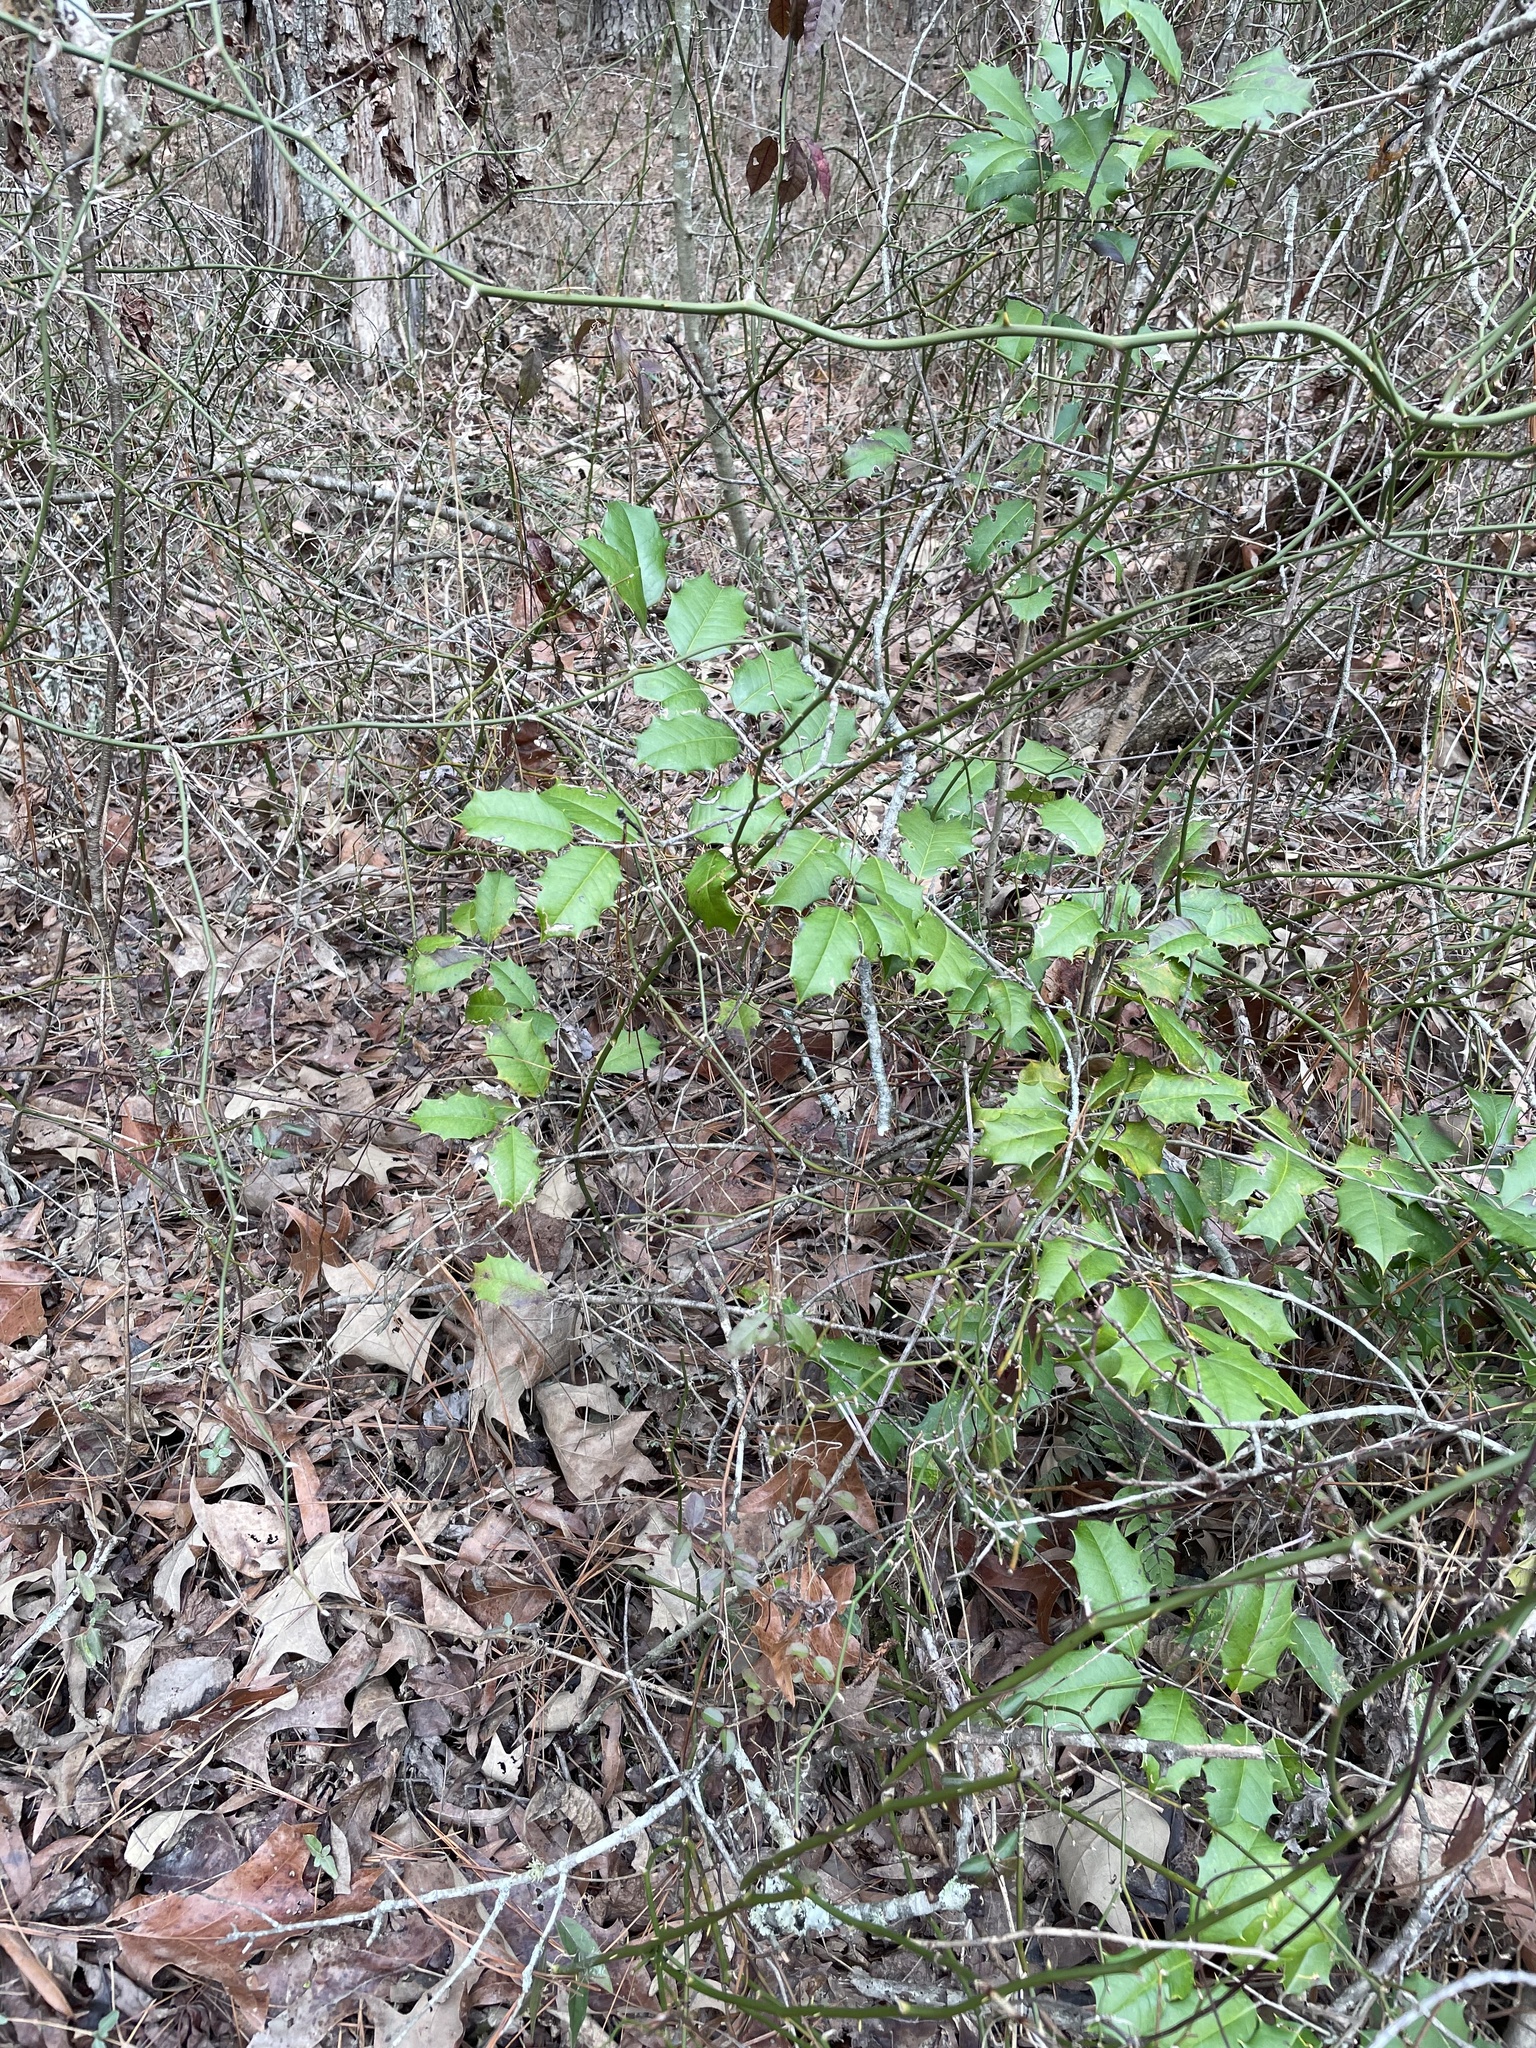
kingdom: Plantae
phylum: Tracheophyta
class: Magnoliopsida
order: Aquifoliales
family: Aquifoliaceae
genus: Ilex
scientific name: Ilex opaca
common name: American holly
